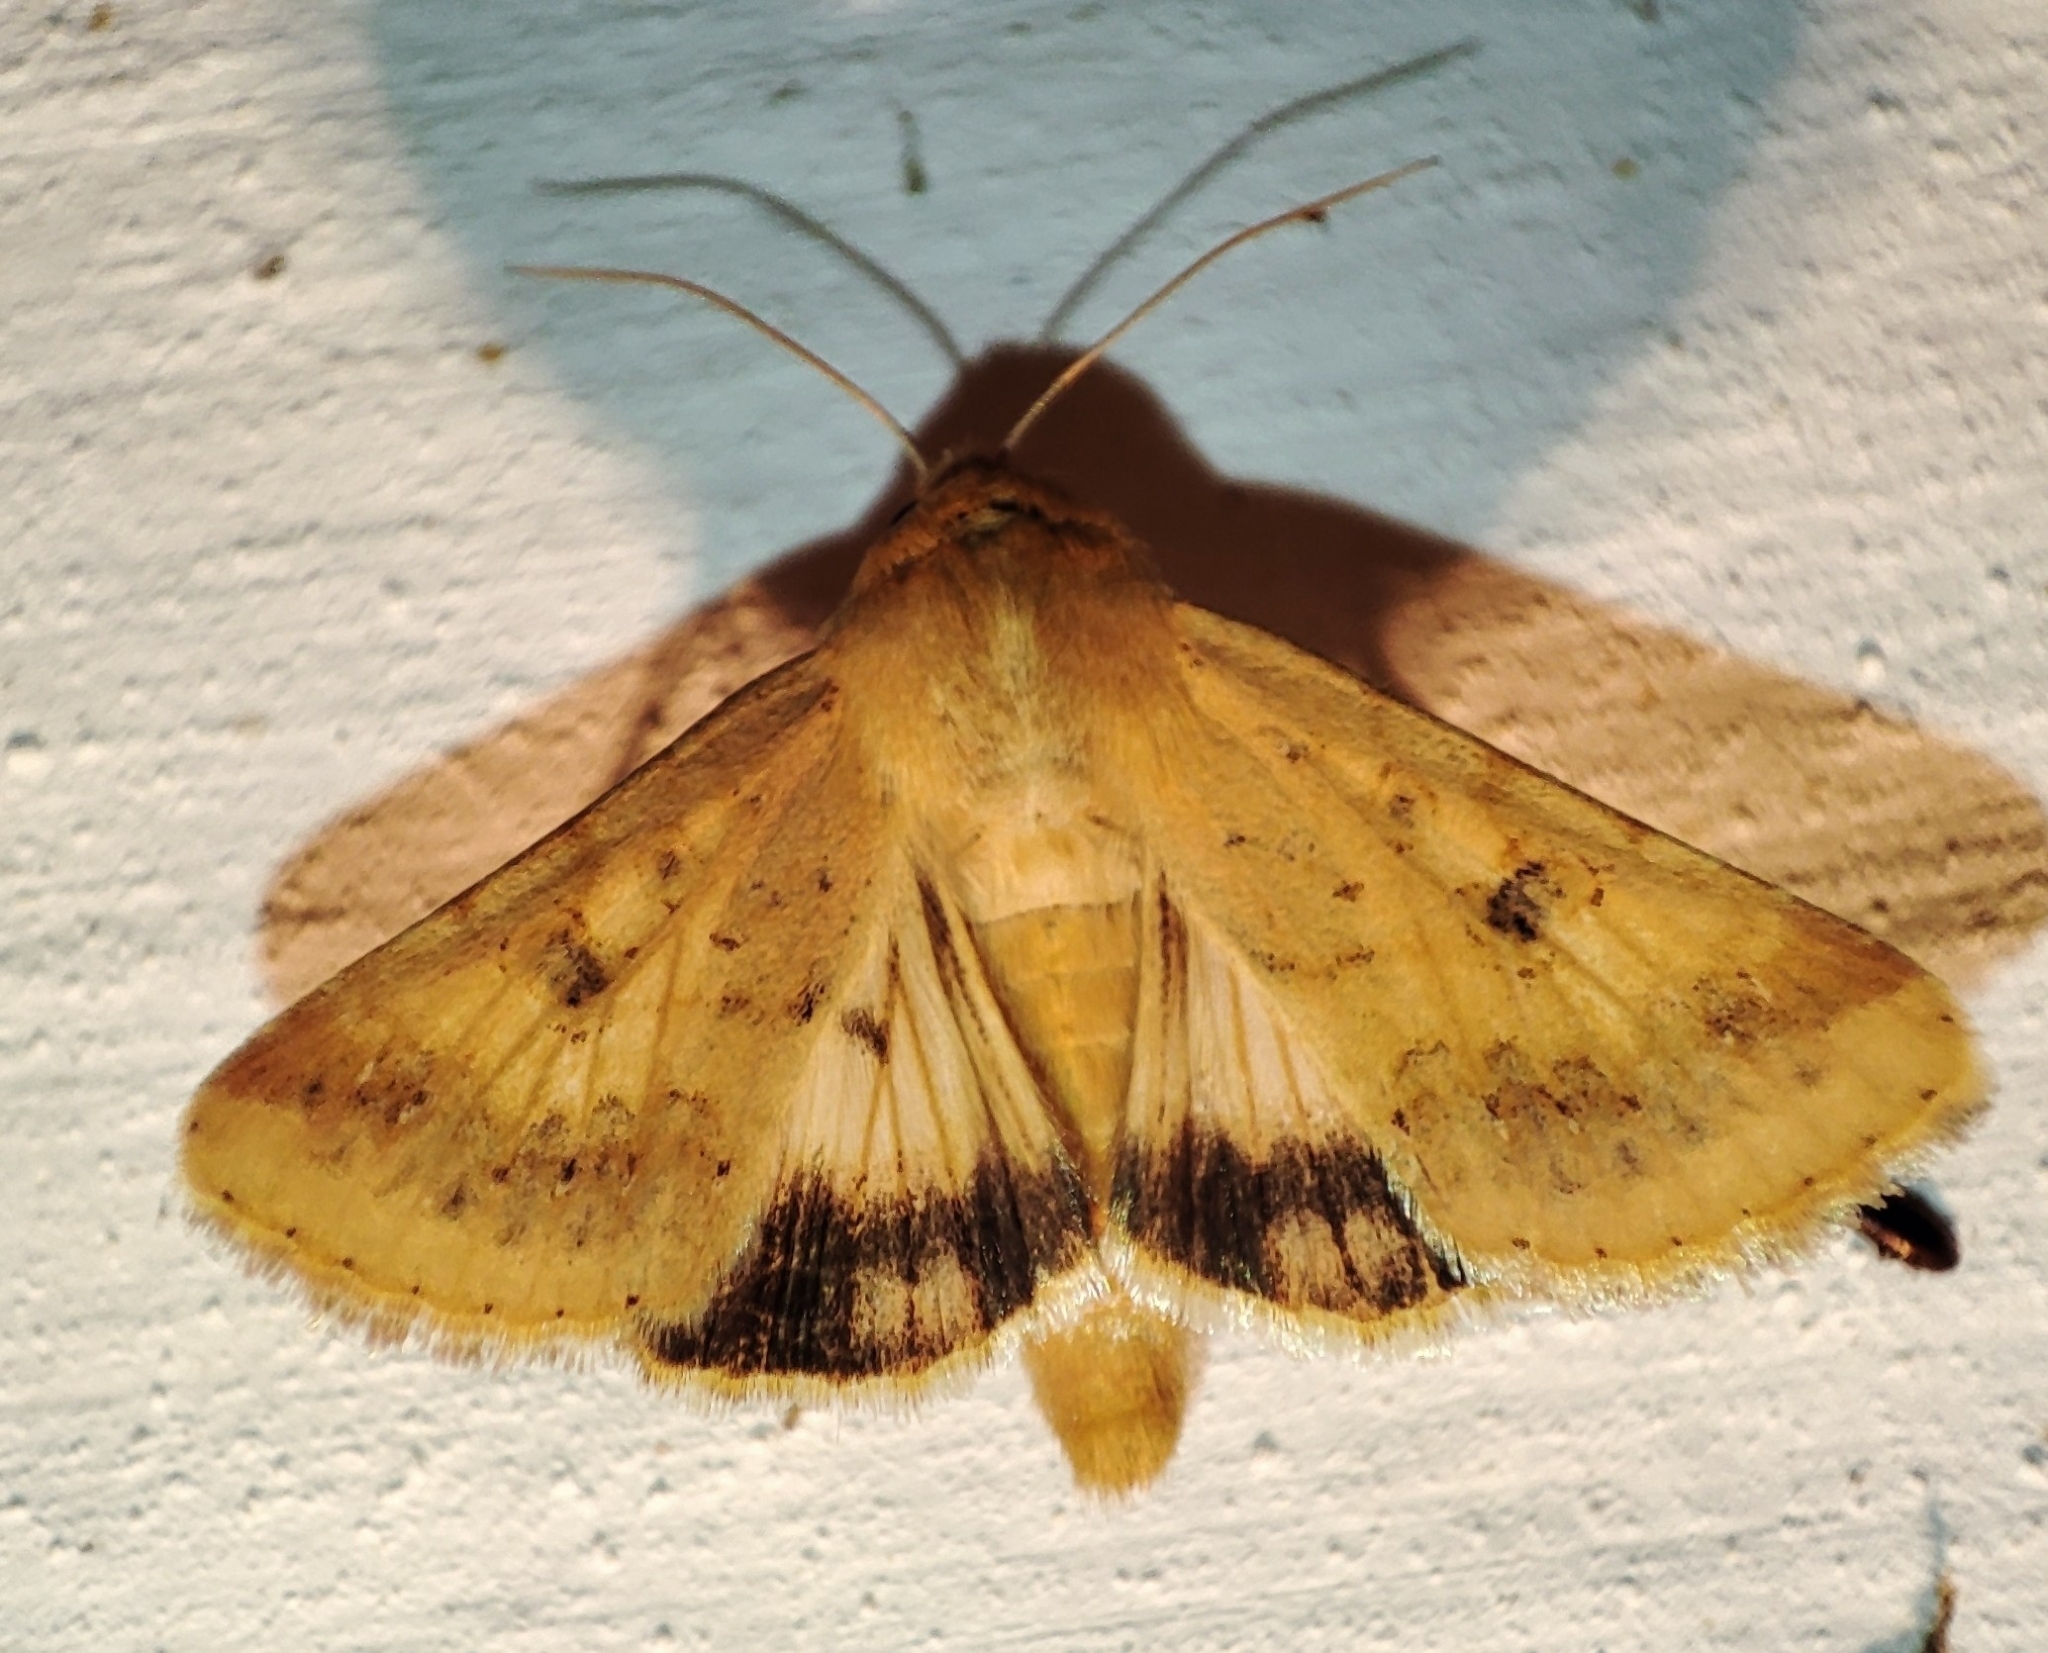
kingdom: Animalia
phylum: Arthropoda
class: Insecta
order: Lepidoptera
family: Noctuidae
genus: Helicoverpa
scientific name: Helicoverpa armigera
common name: Cotton bollworm
